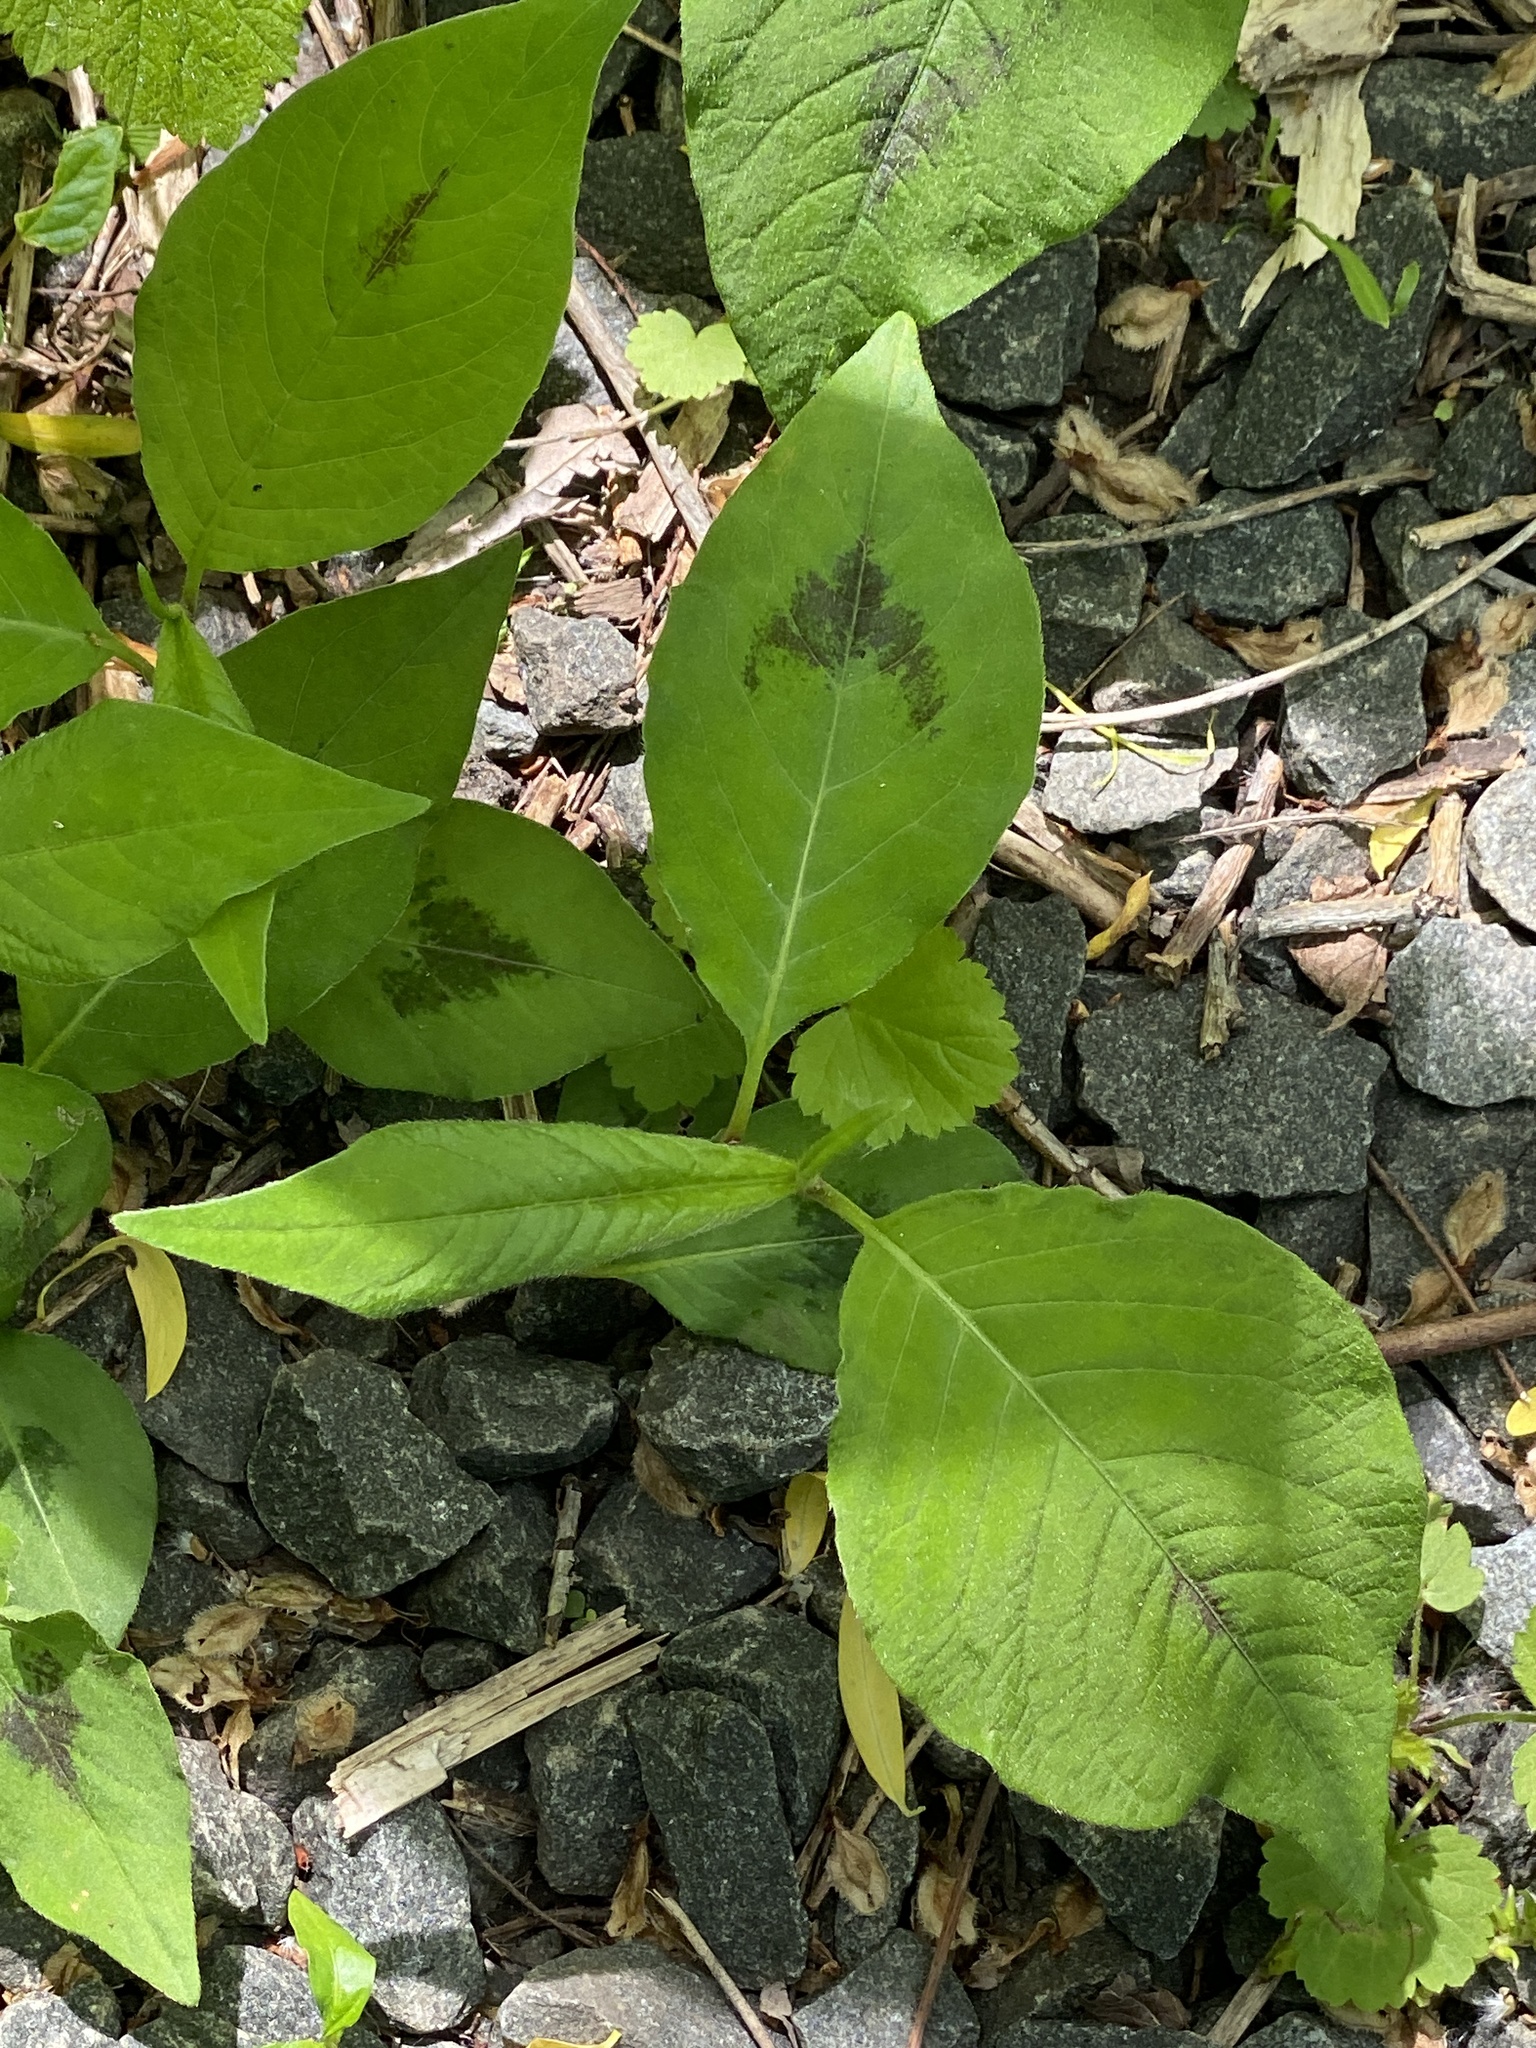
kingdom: Plantae
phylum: Tracheophyta
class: Magnoliopsida
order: Caryophyllales
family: Polygonaceae
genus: Persicaria
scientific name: Persicaria virginiana
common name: Jumpseed
